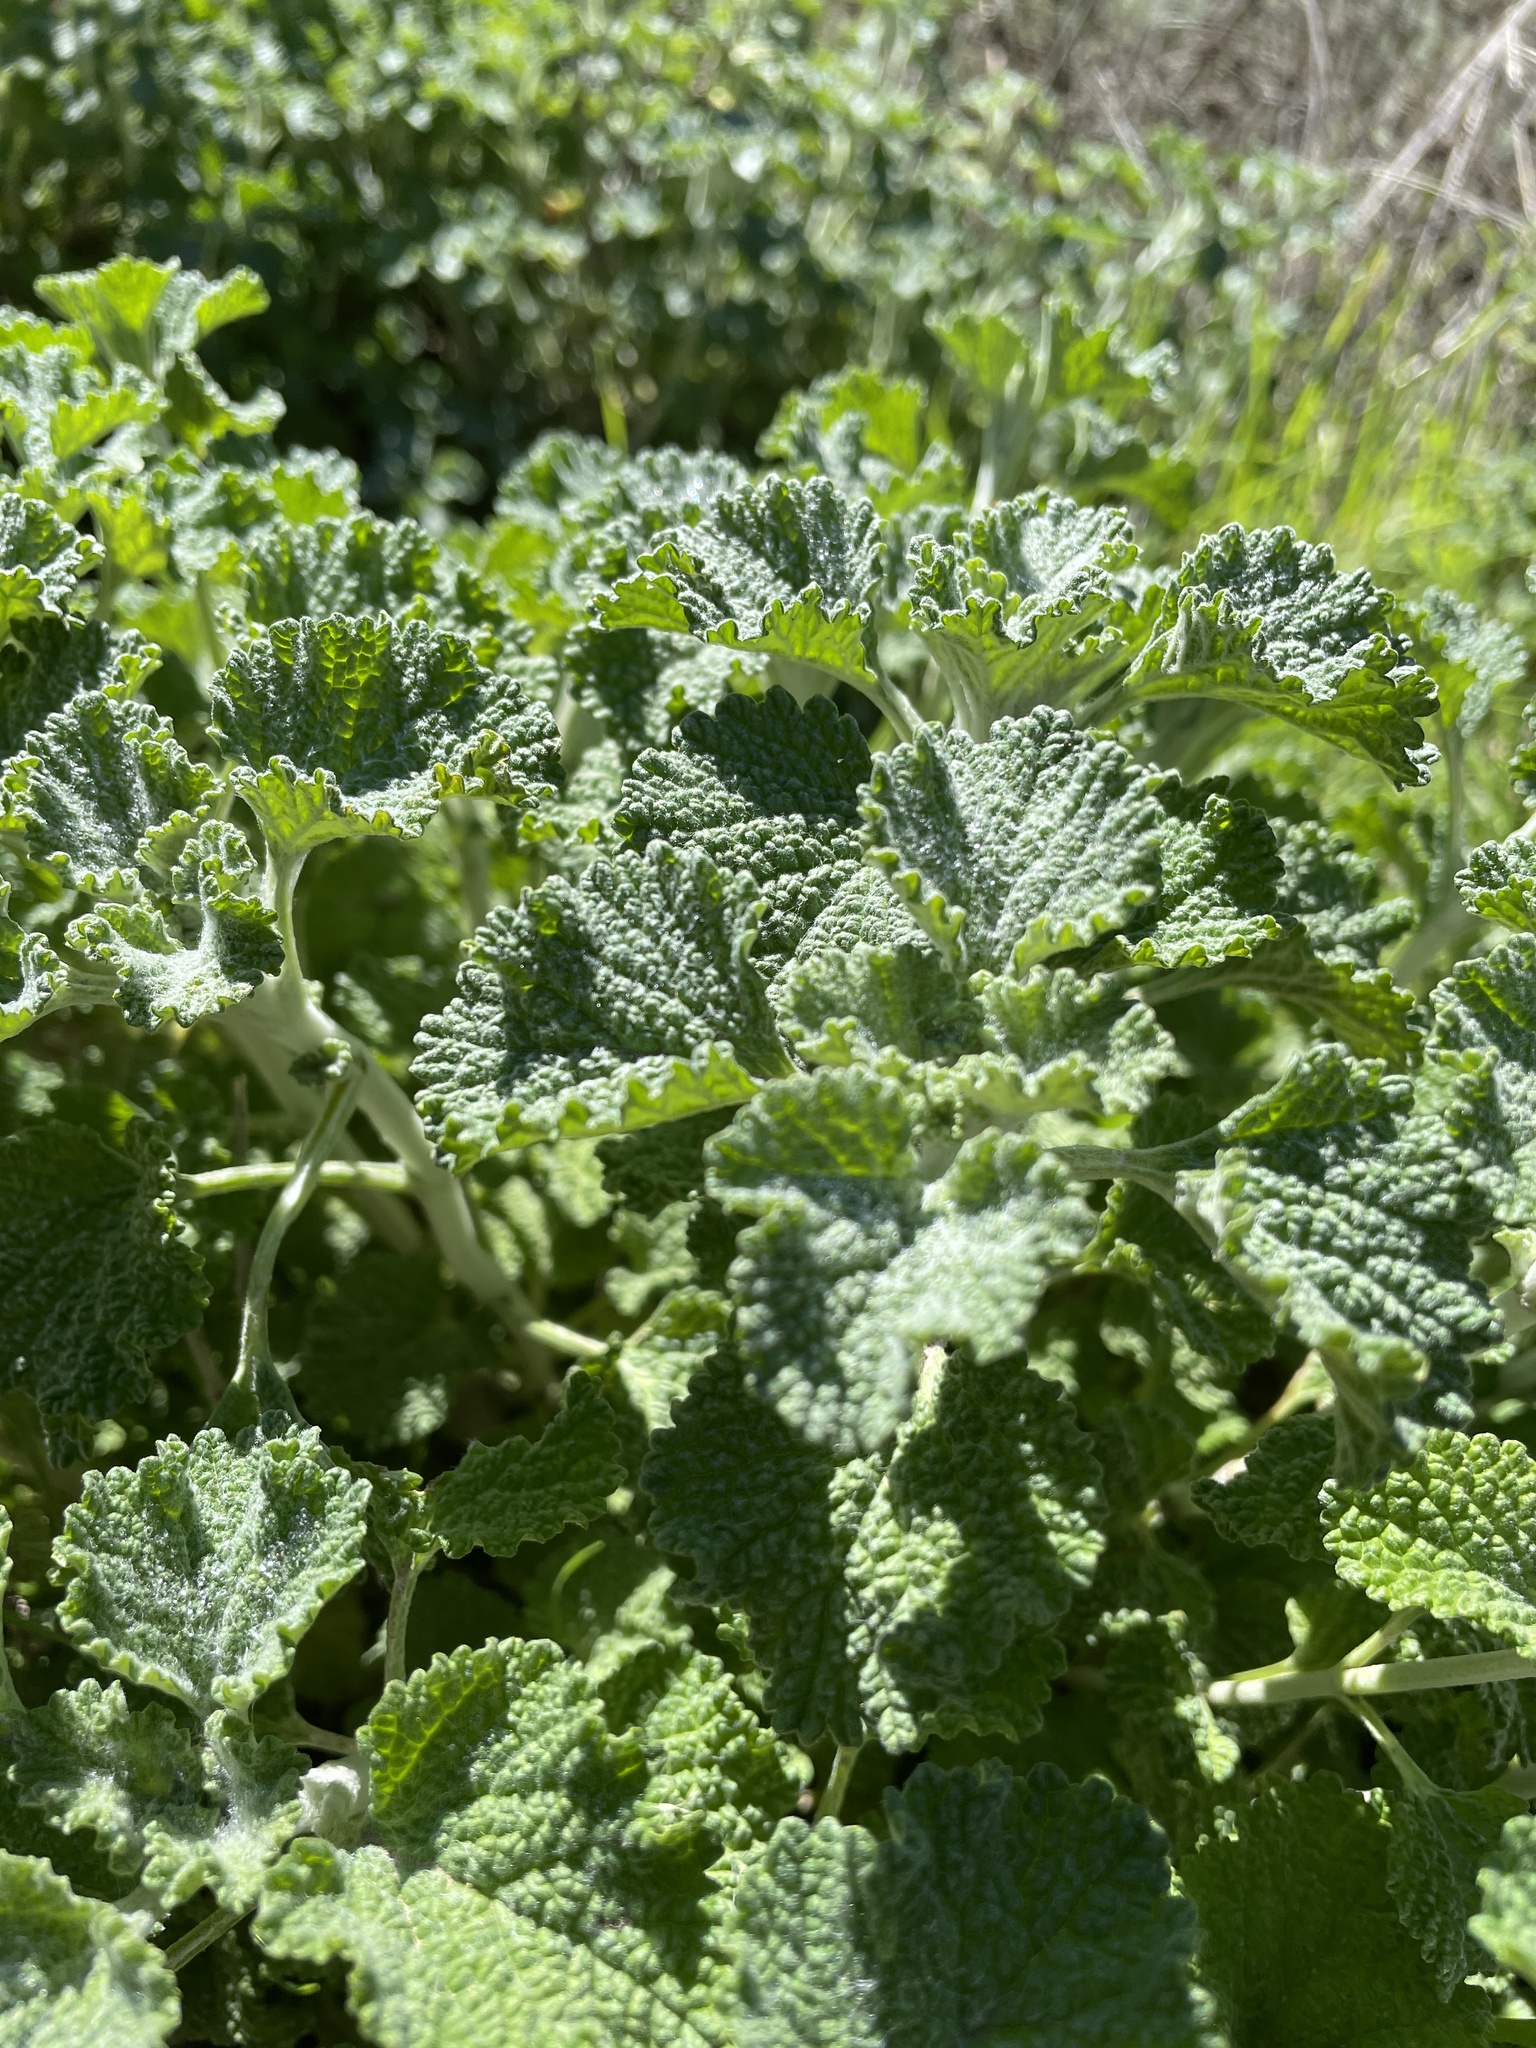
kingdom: Plantae
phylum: Tracheophyta
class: Magnoliopsida
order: Lamiales
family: Lamiaceae
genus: Marrubium
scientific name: Marrubium vulgare
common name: Horehound
